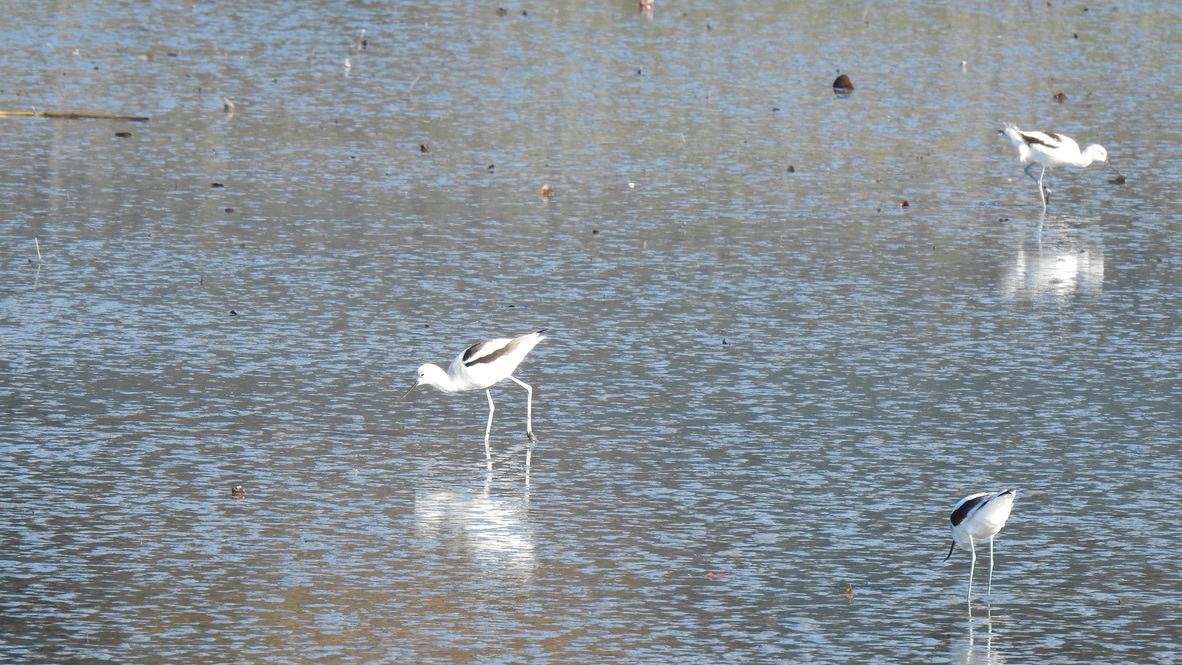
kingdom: Animalia
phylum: Chordata
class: Aves
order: Charadriiformes
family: Recurvirostridae
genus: Recurvirostra
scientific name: Recurvirostra americana
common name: American avocet
